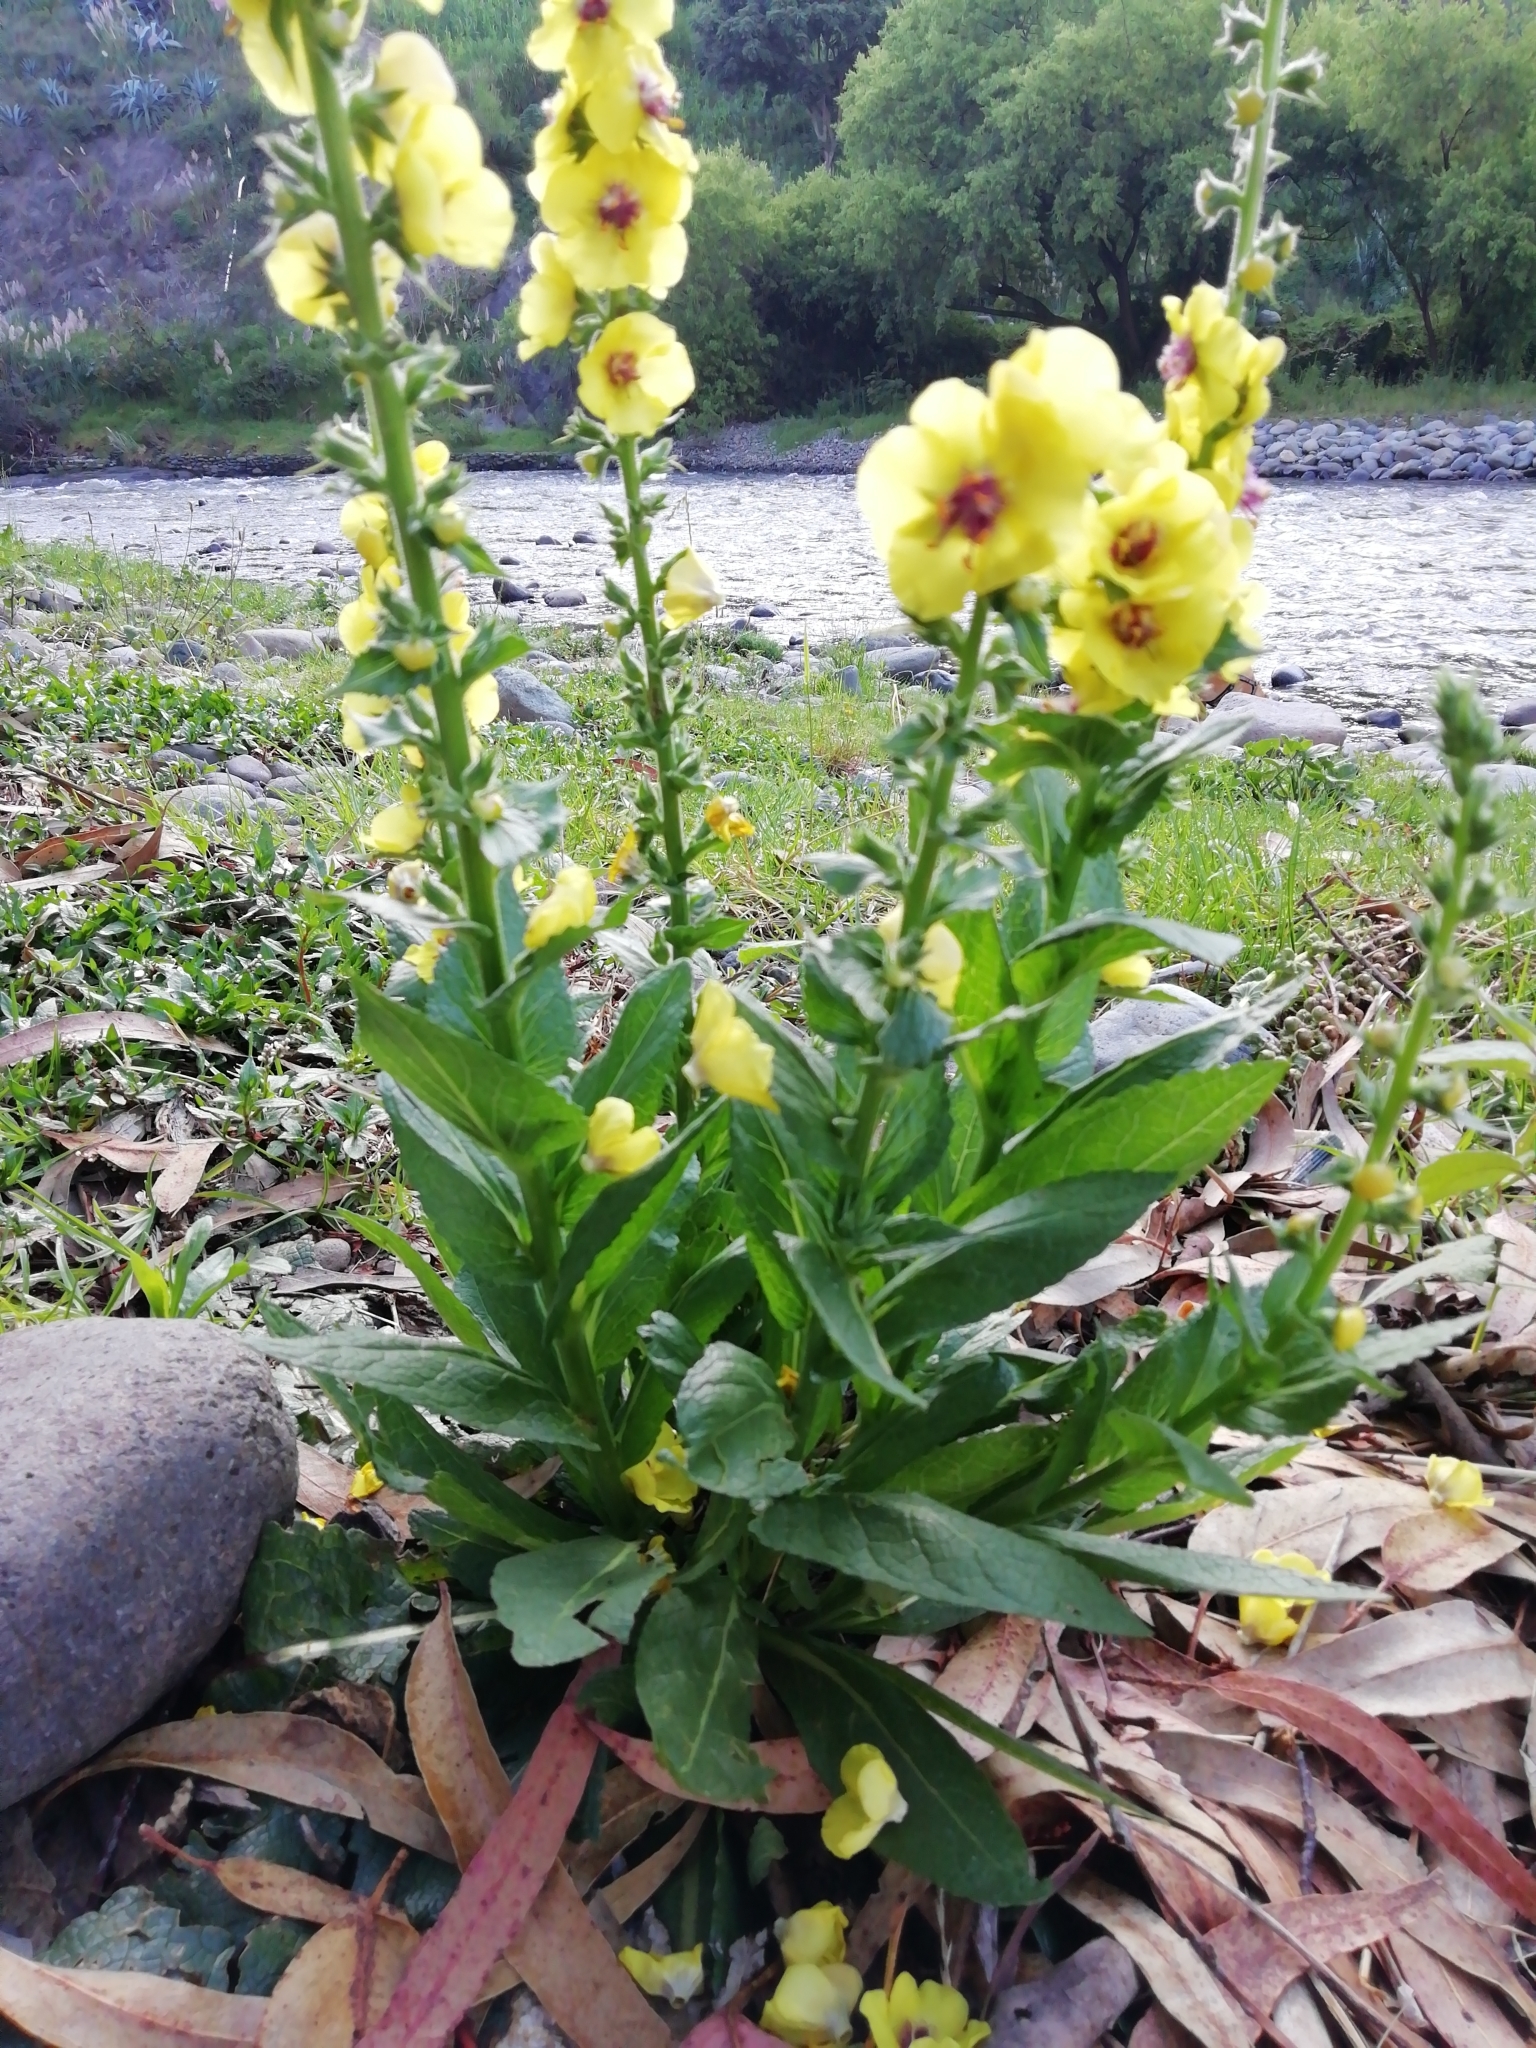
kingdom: Plantae
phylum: Tracheophyta
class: Magnoliopsida
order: Lamiales
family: Scrophulariaceae
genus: Verbascum
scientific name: Verbascum virgatum
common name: Twiggy mullein
